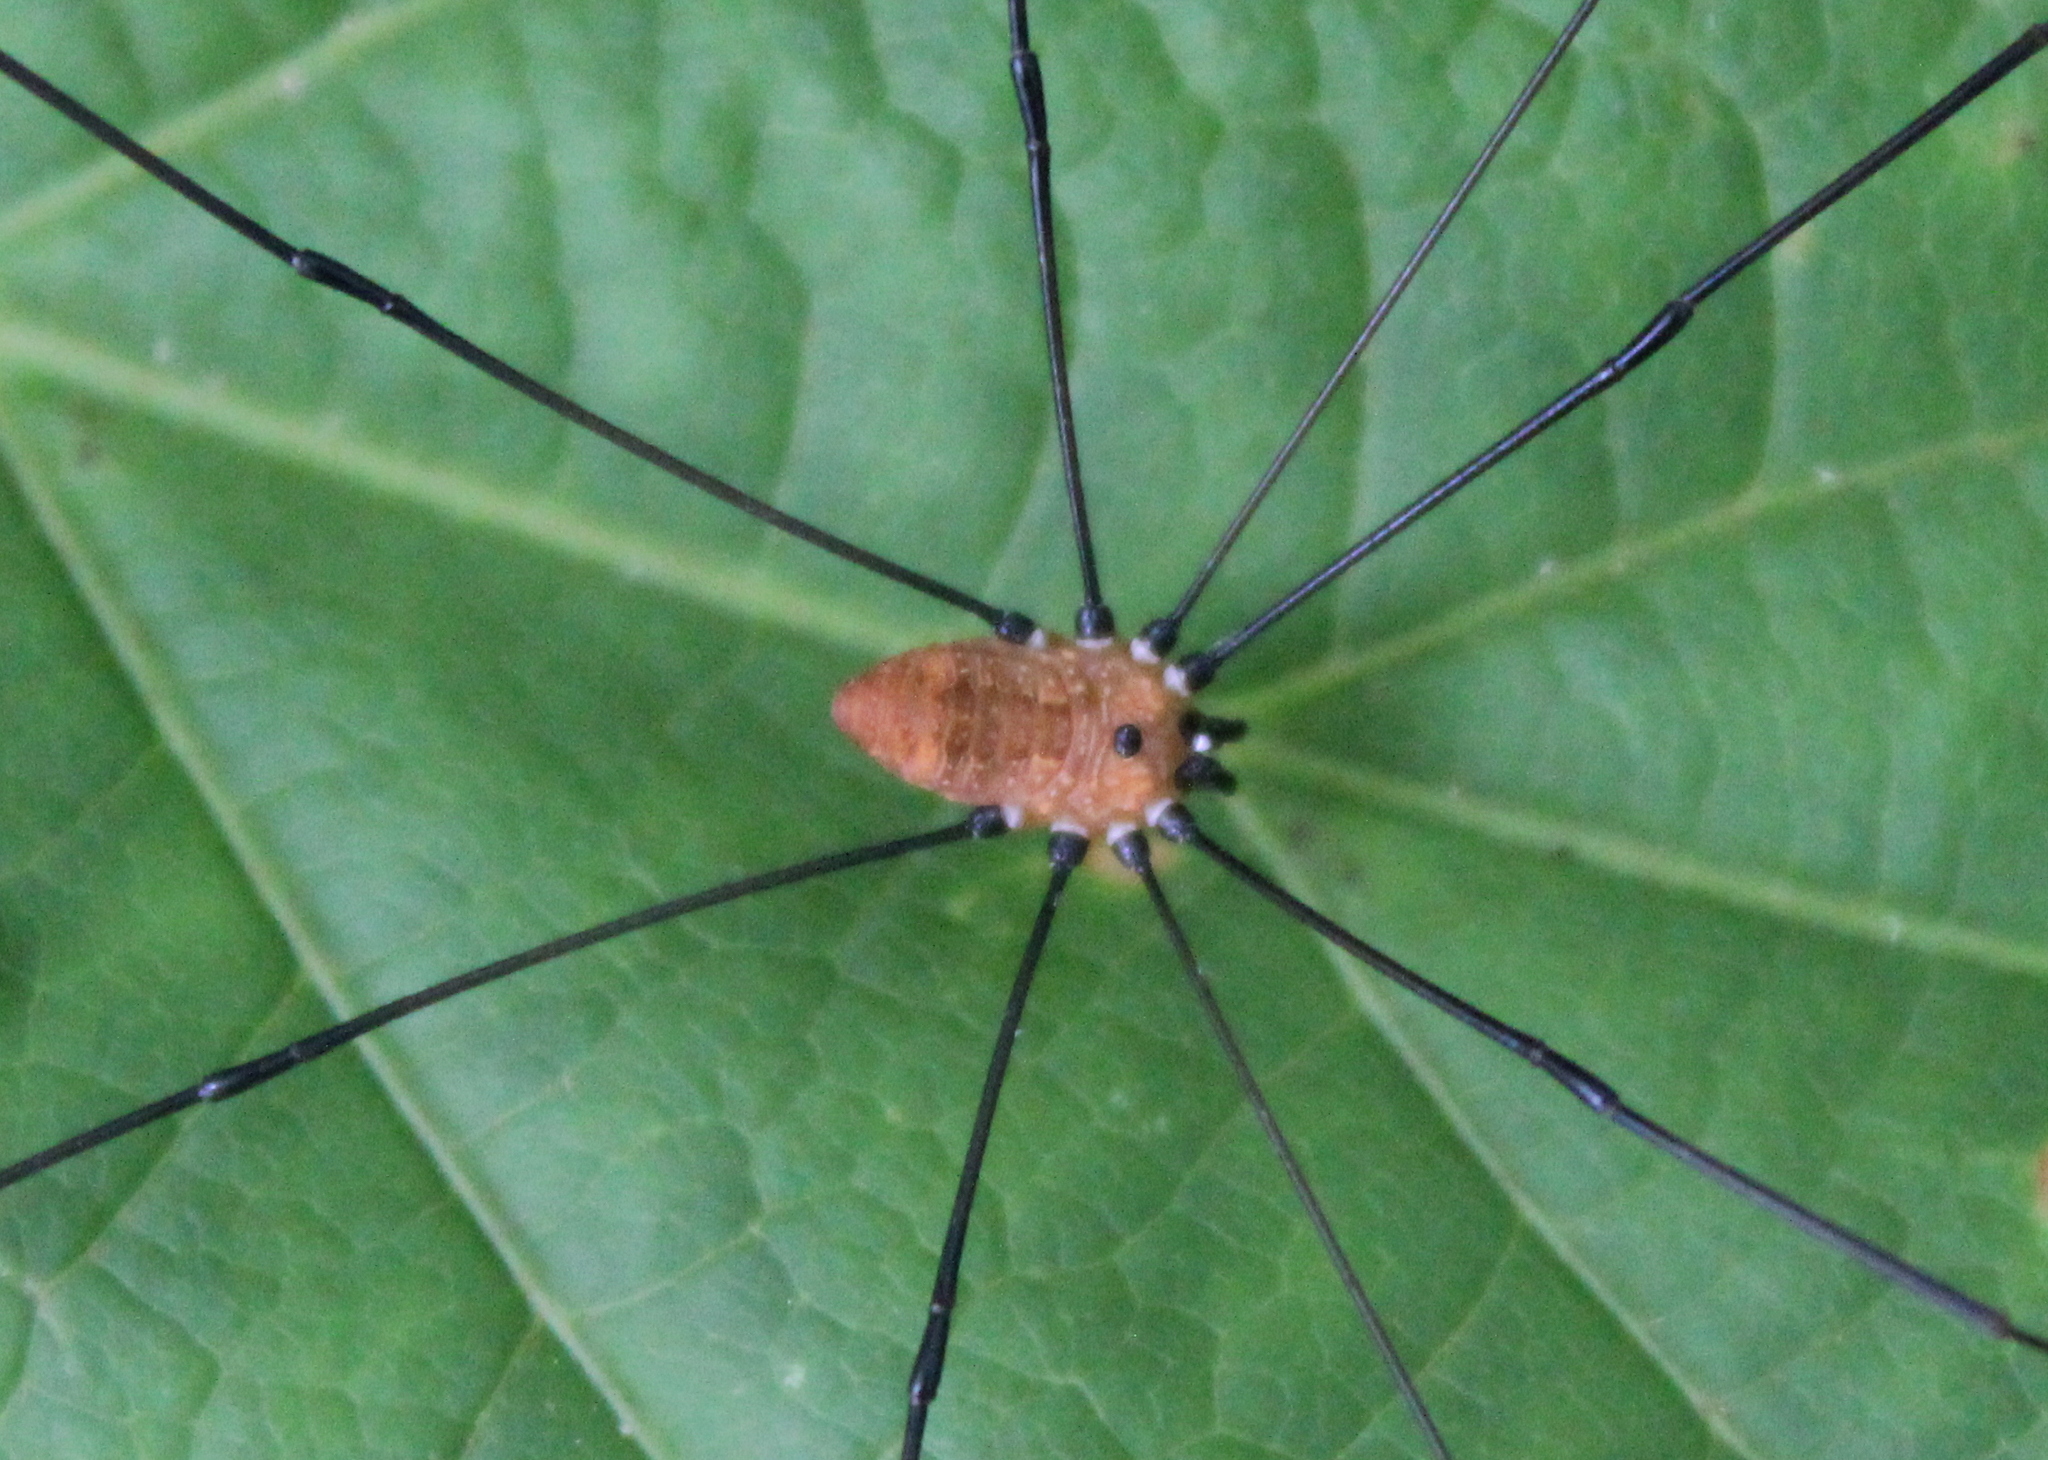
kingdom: Animalia
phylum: Arthropoda
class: Arachnida
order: Opiliones
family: Sclerosomatidae
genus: Leiobunum
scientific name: Leiobunum nigropalpi
